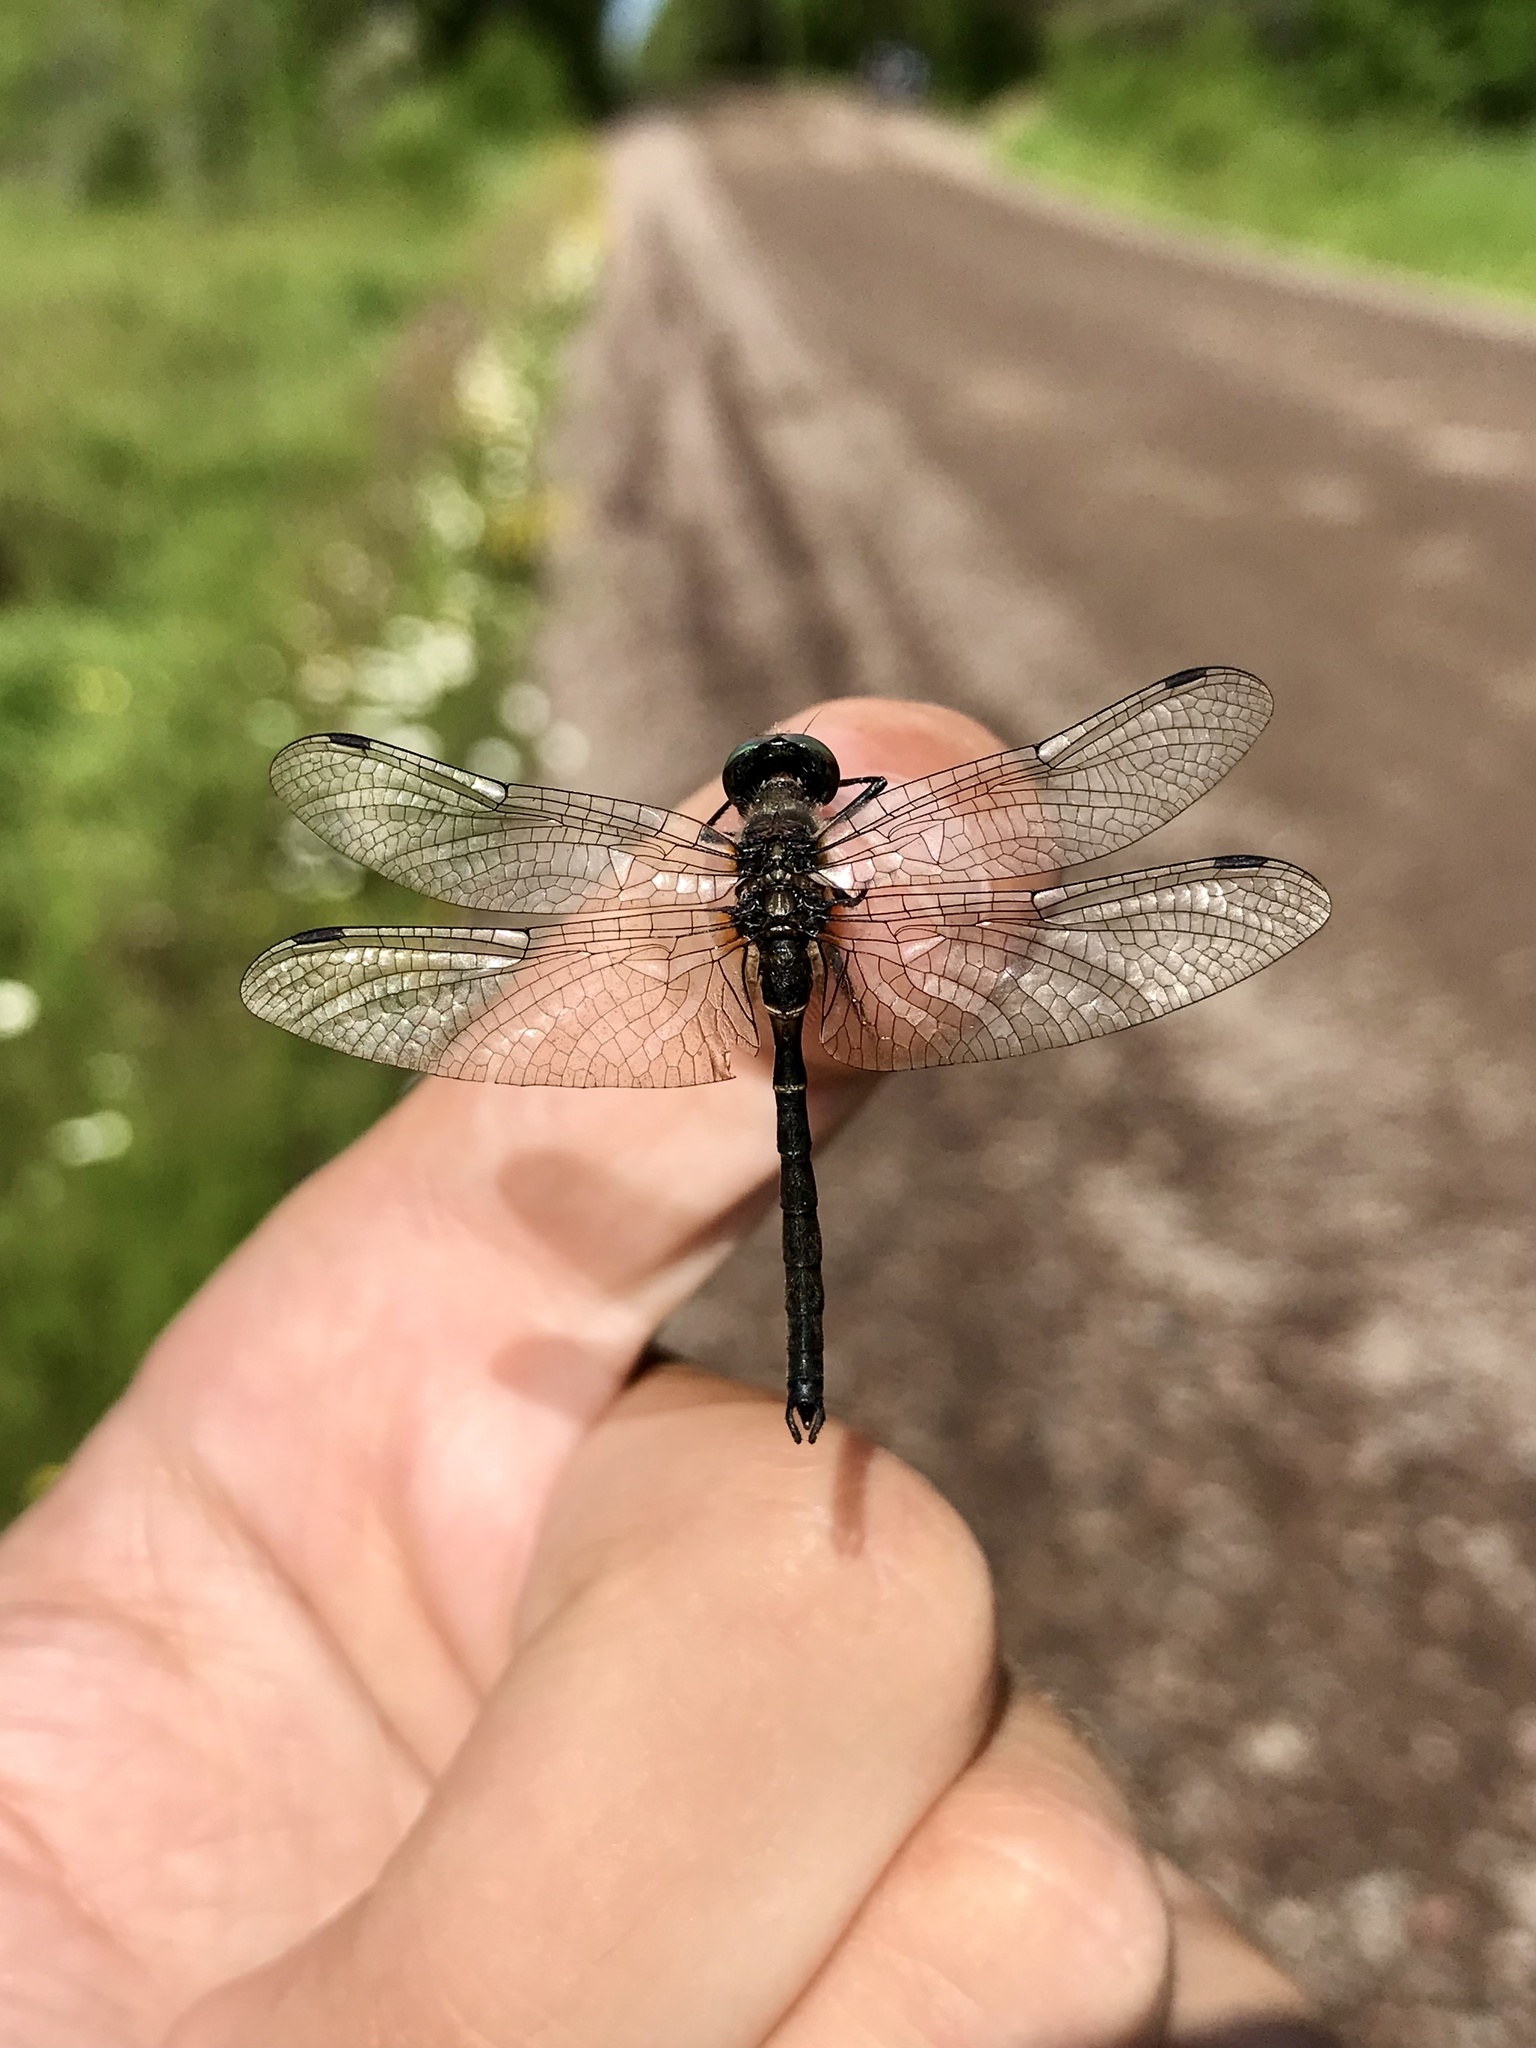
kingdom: Animalia
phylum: Arthropoda
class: Insecta
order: Odonata
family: Corduliidae
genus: Williamsonia
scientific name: Williamsonia fletcheri
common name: Ebony boghaunter
